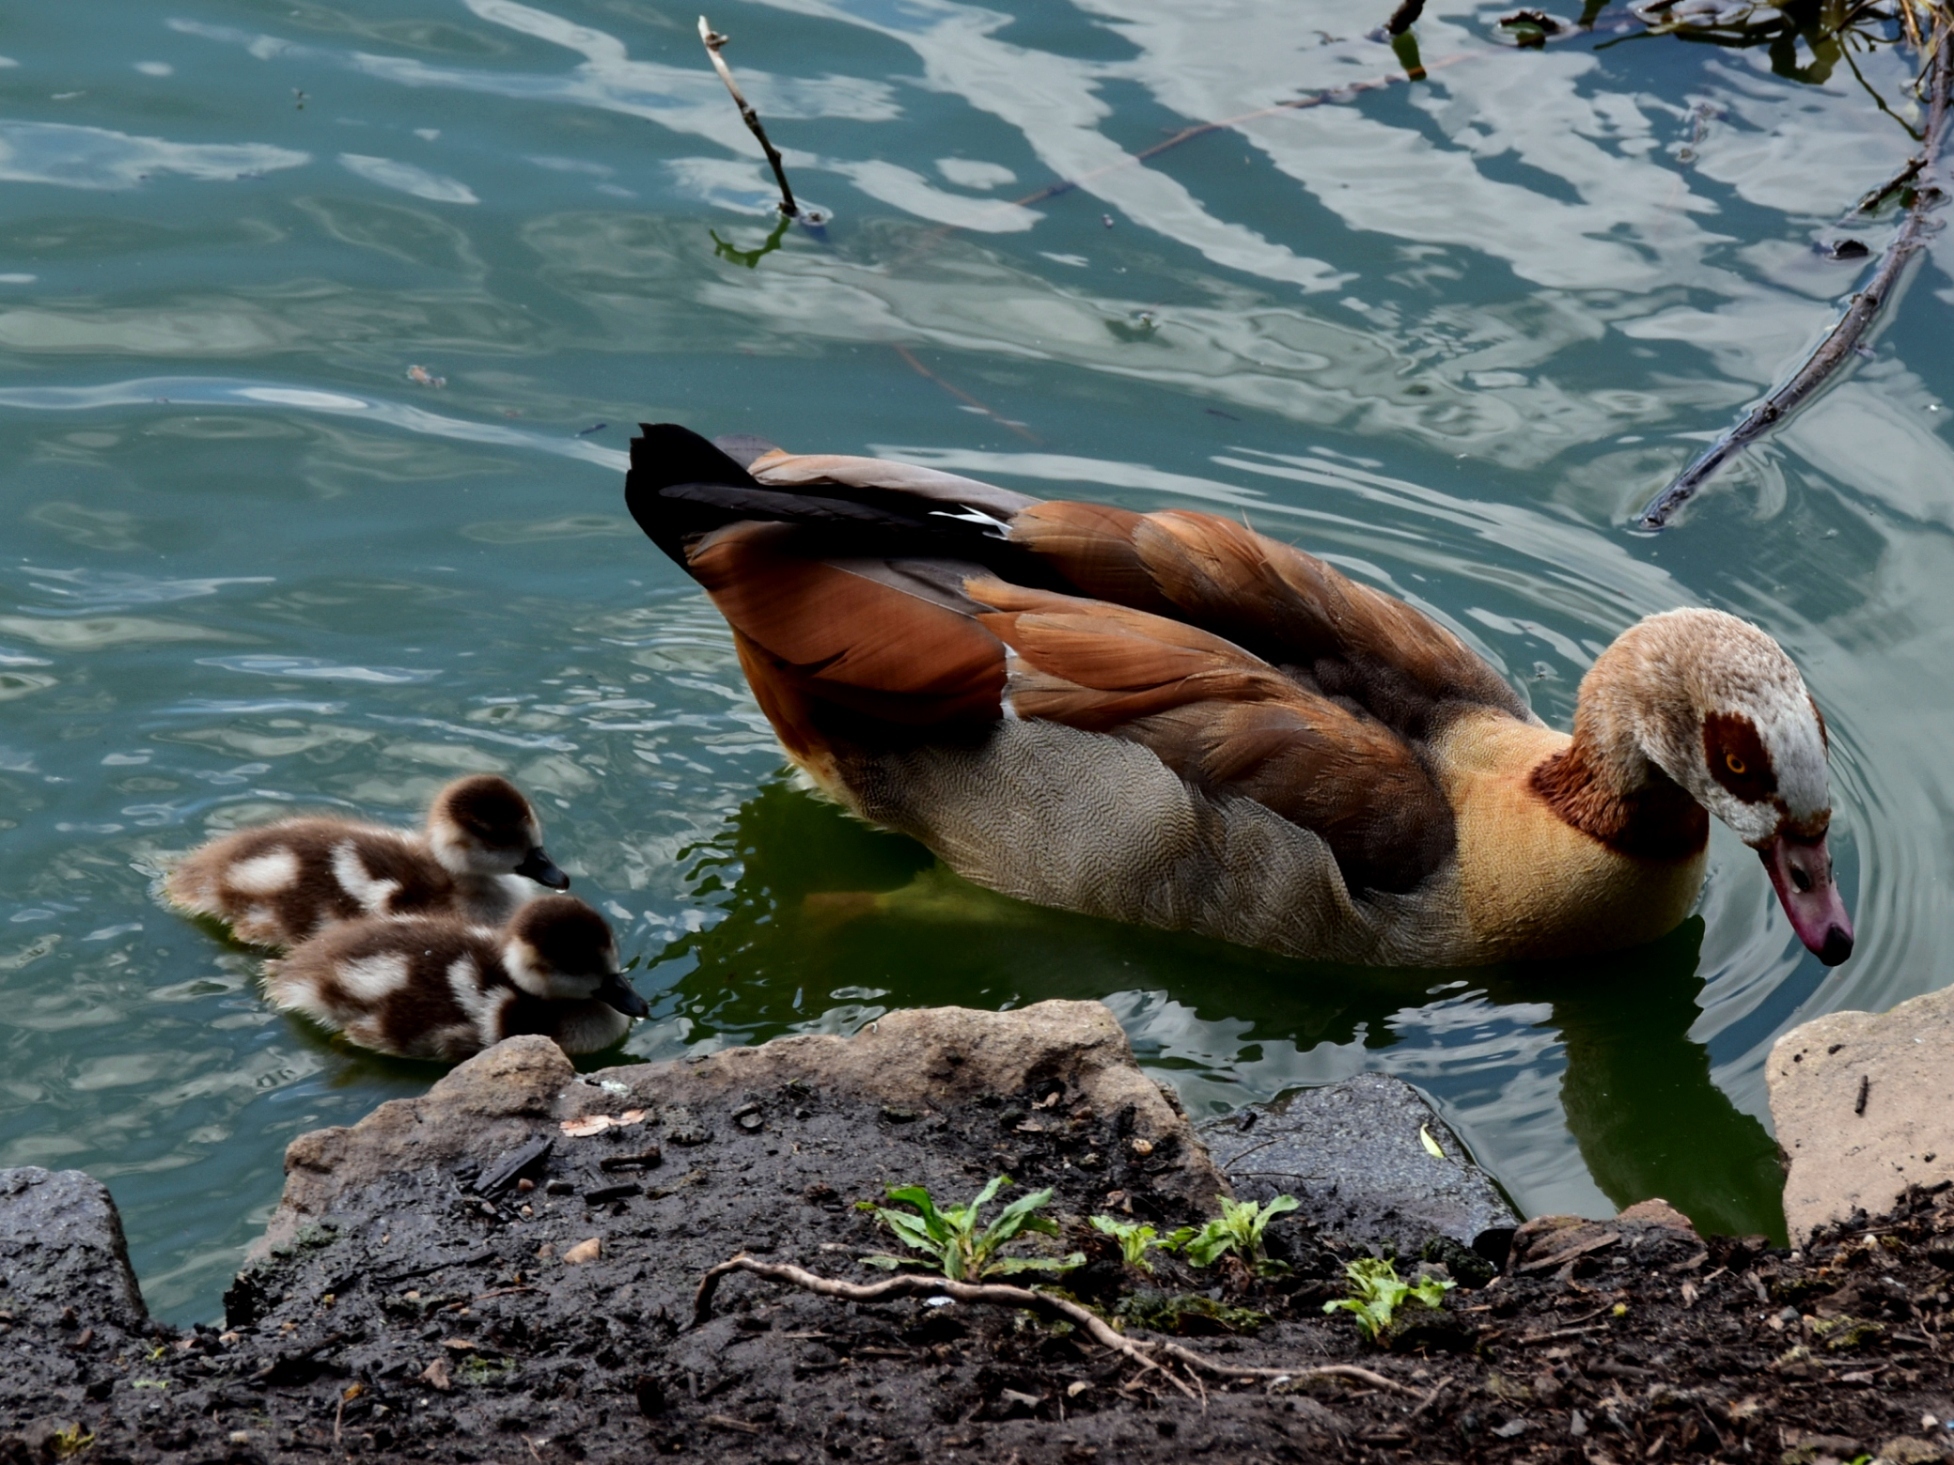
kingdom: Animalia
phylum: Chordata
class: Aves
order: Anseriformes
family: Anatidae
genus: Alopochen
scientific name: Alopochen aegyptiaca
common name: Egyptian goose
